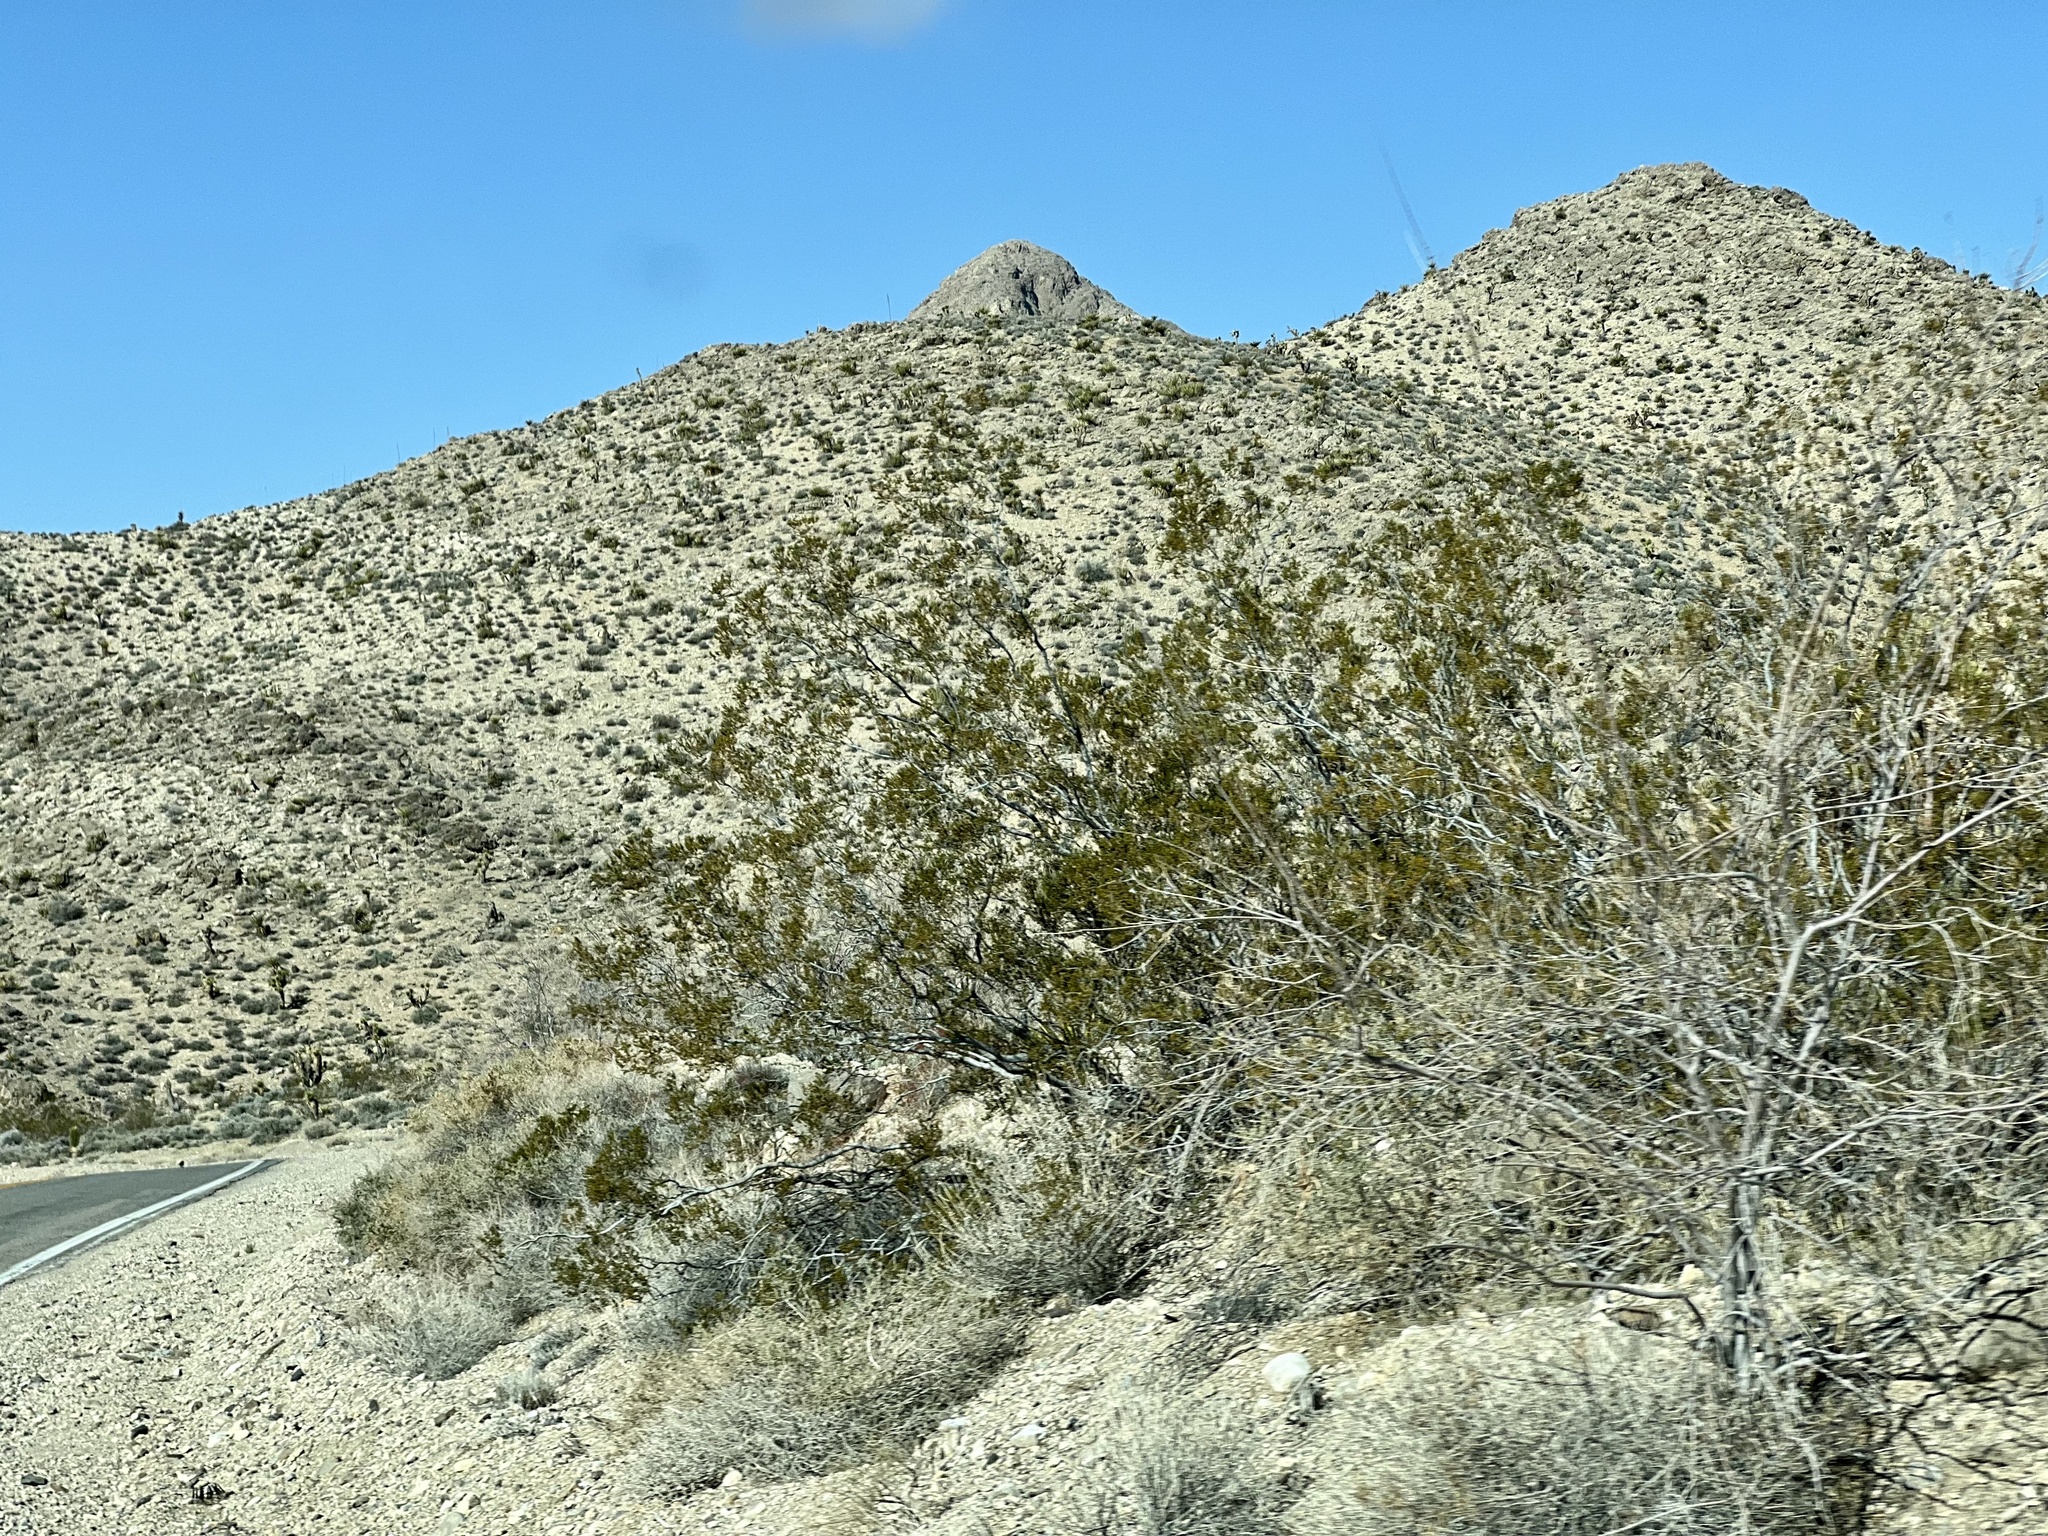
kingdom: Plantae
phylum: Tracheophyta
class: Magnoliopsida
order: Zygophyllales
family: Zygophyllaceae
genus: Larrea
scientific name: Larrea tridentata
